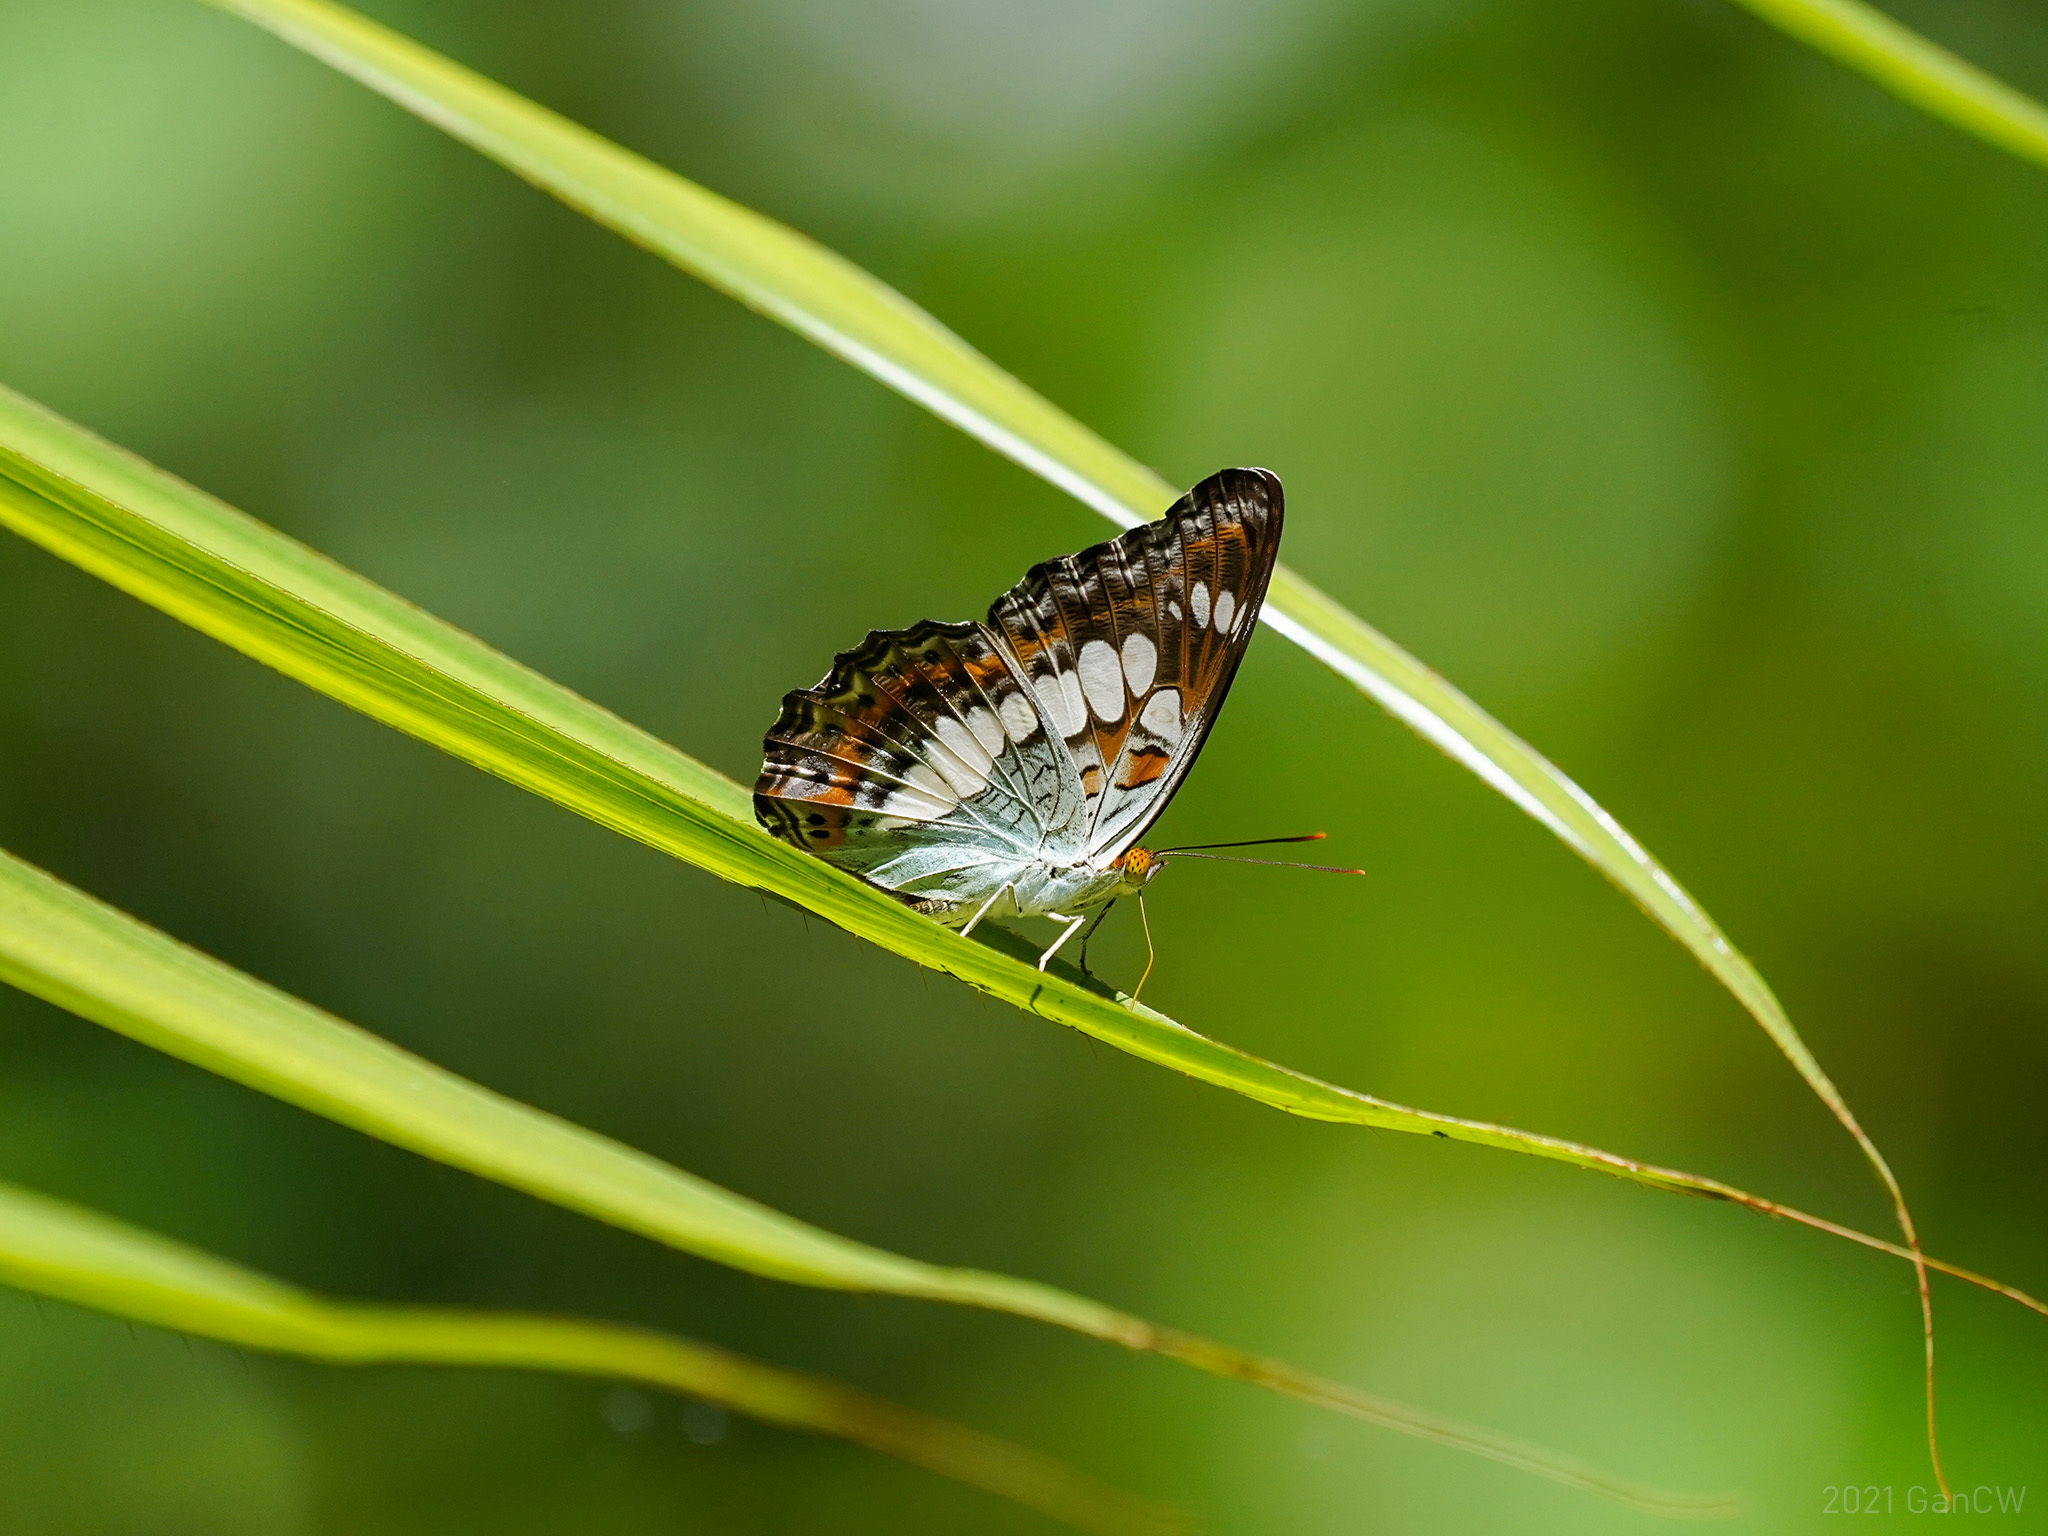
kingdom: Animalia
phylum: Arthropoda
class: Insecta
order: Lepidoptera
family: Nymphalidae
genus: Limenitis
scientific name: Limenitis Moduza procris
